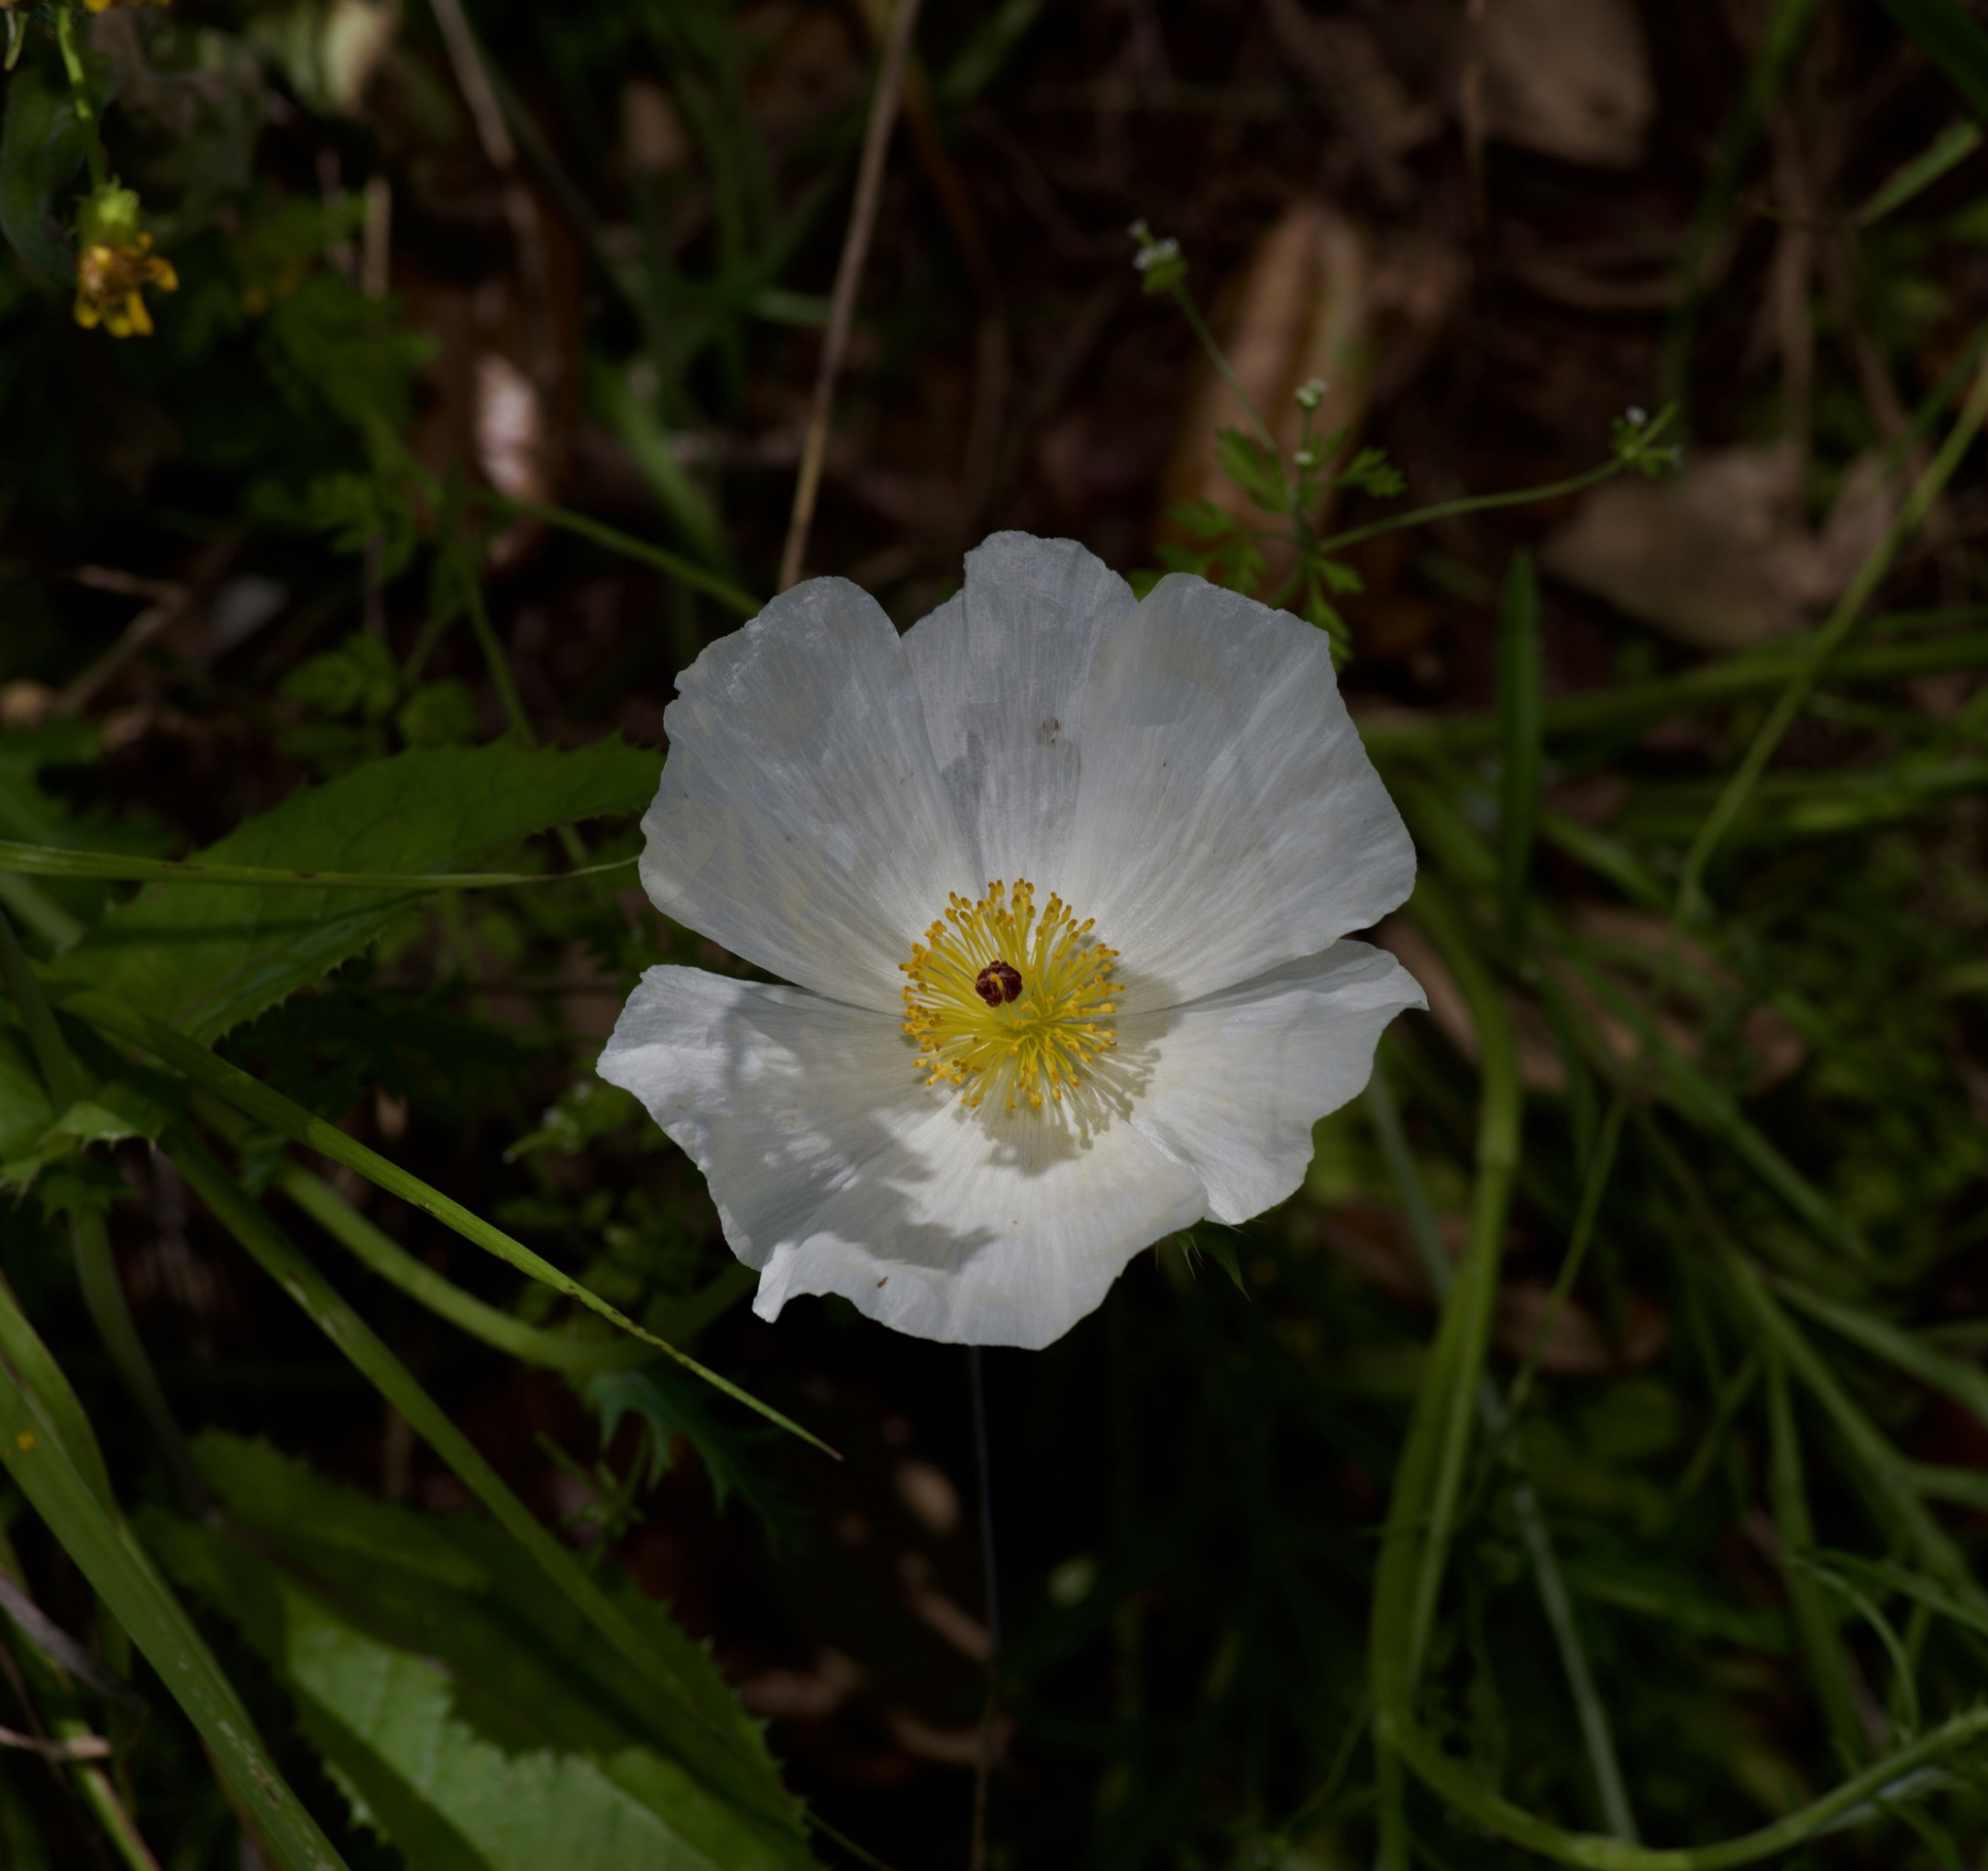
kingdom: Plantae
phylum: Tracheophyta
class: Magnoliopsida
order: Ranunculales
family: Papaveraceae
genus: Argemone
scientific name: Argemone albiflora
